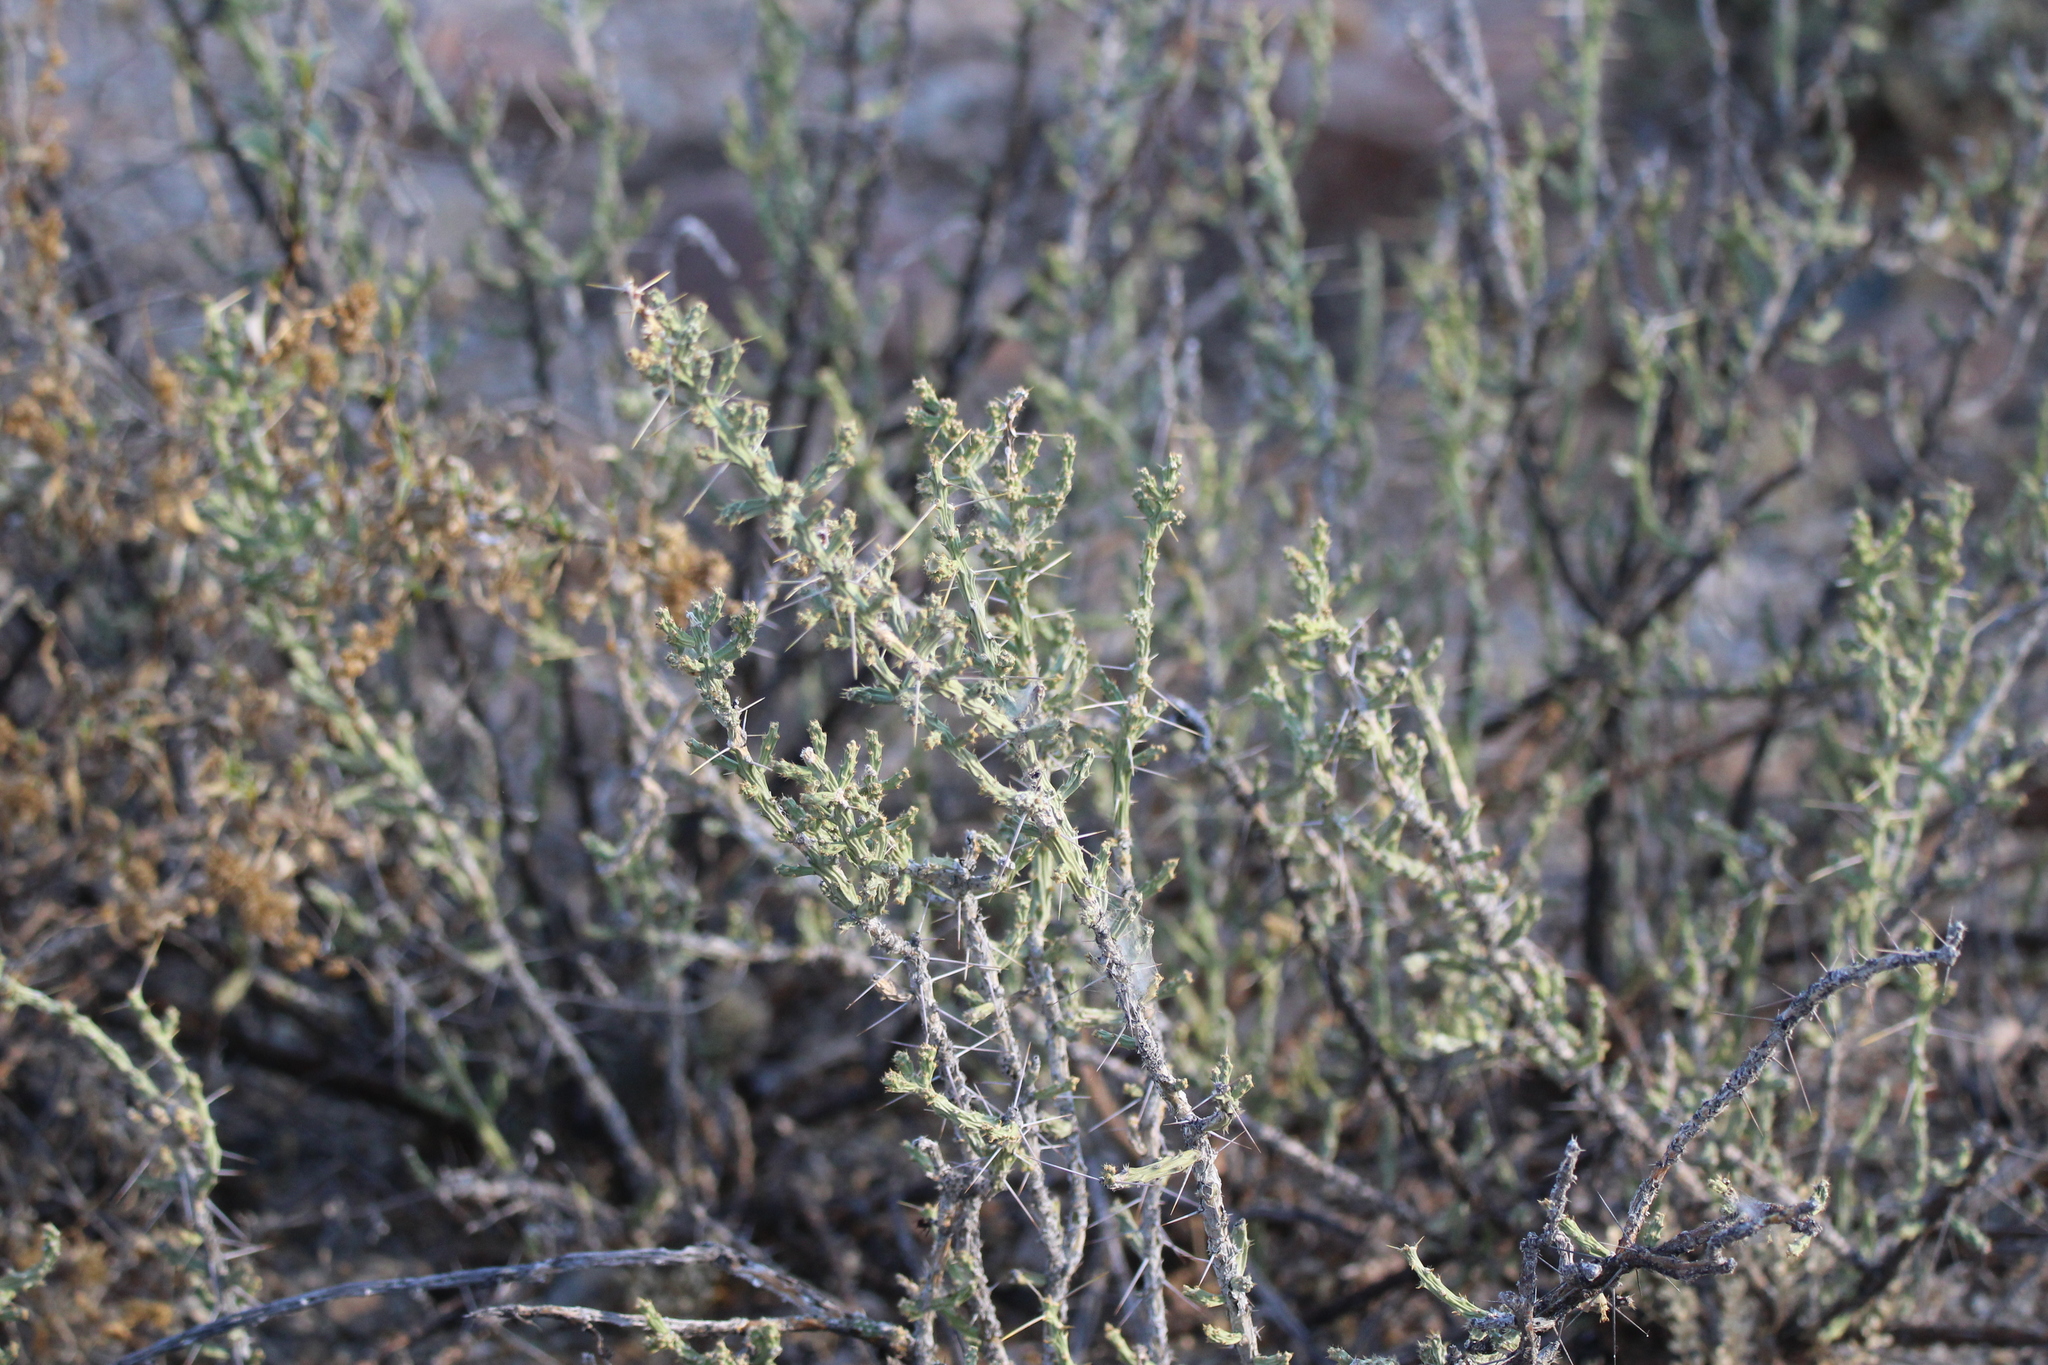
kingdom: Plantae
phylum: Tracheophyta
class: Magnoliopsida
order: Caryophyllales
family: Cactaceae
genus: Cylindropuntia
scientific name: Cylindropuntia leptocaulis
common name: Christmas cactus
